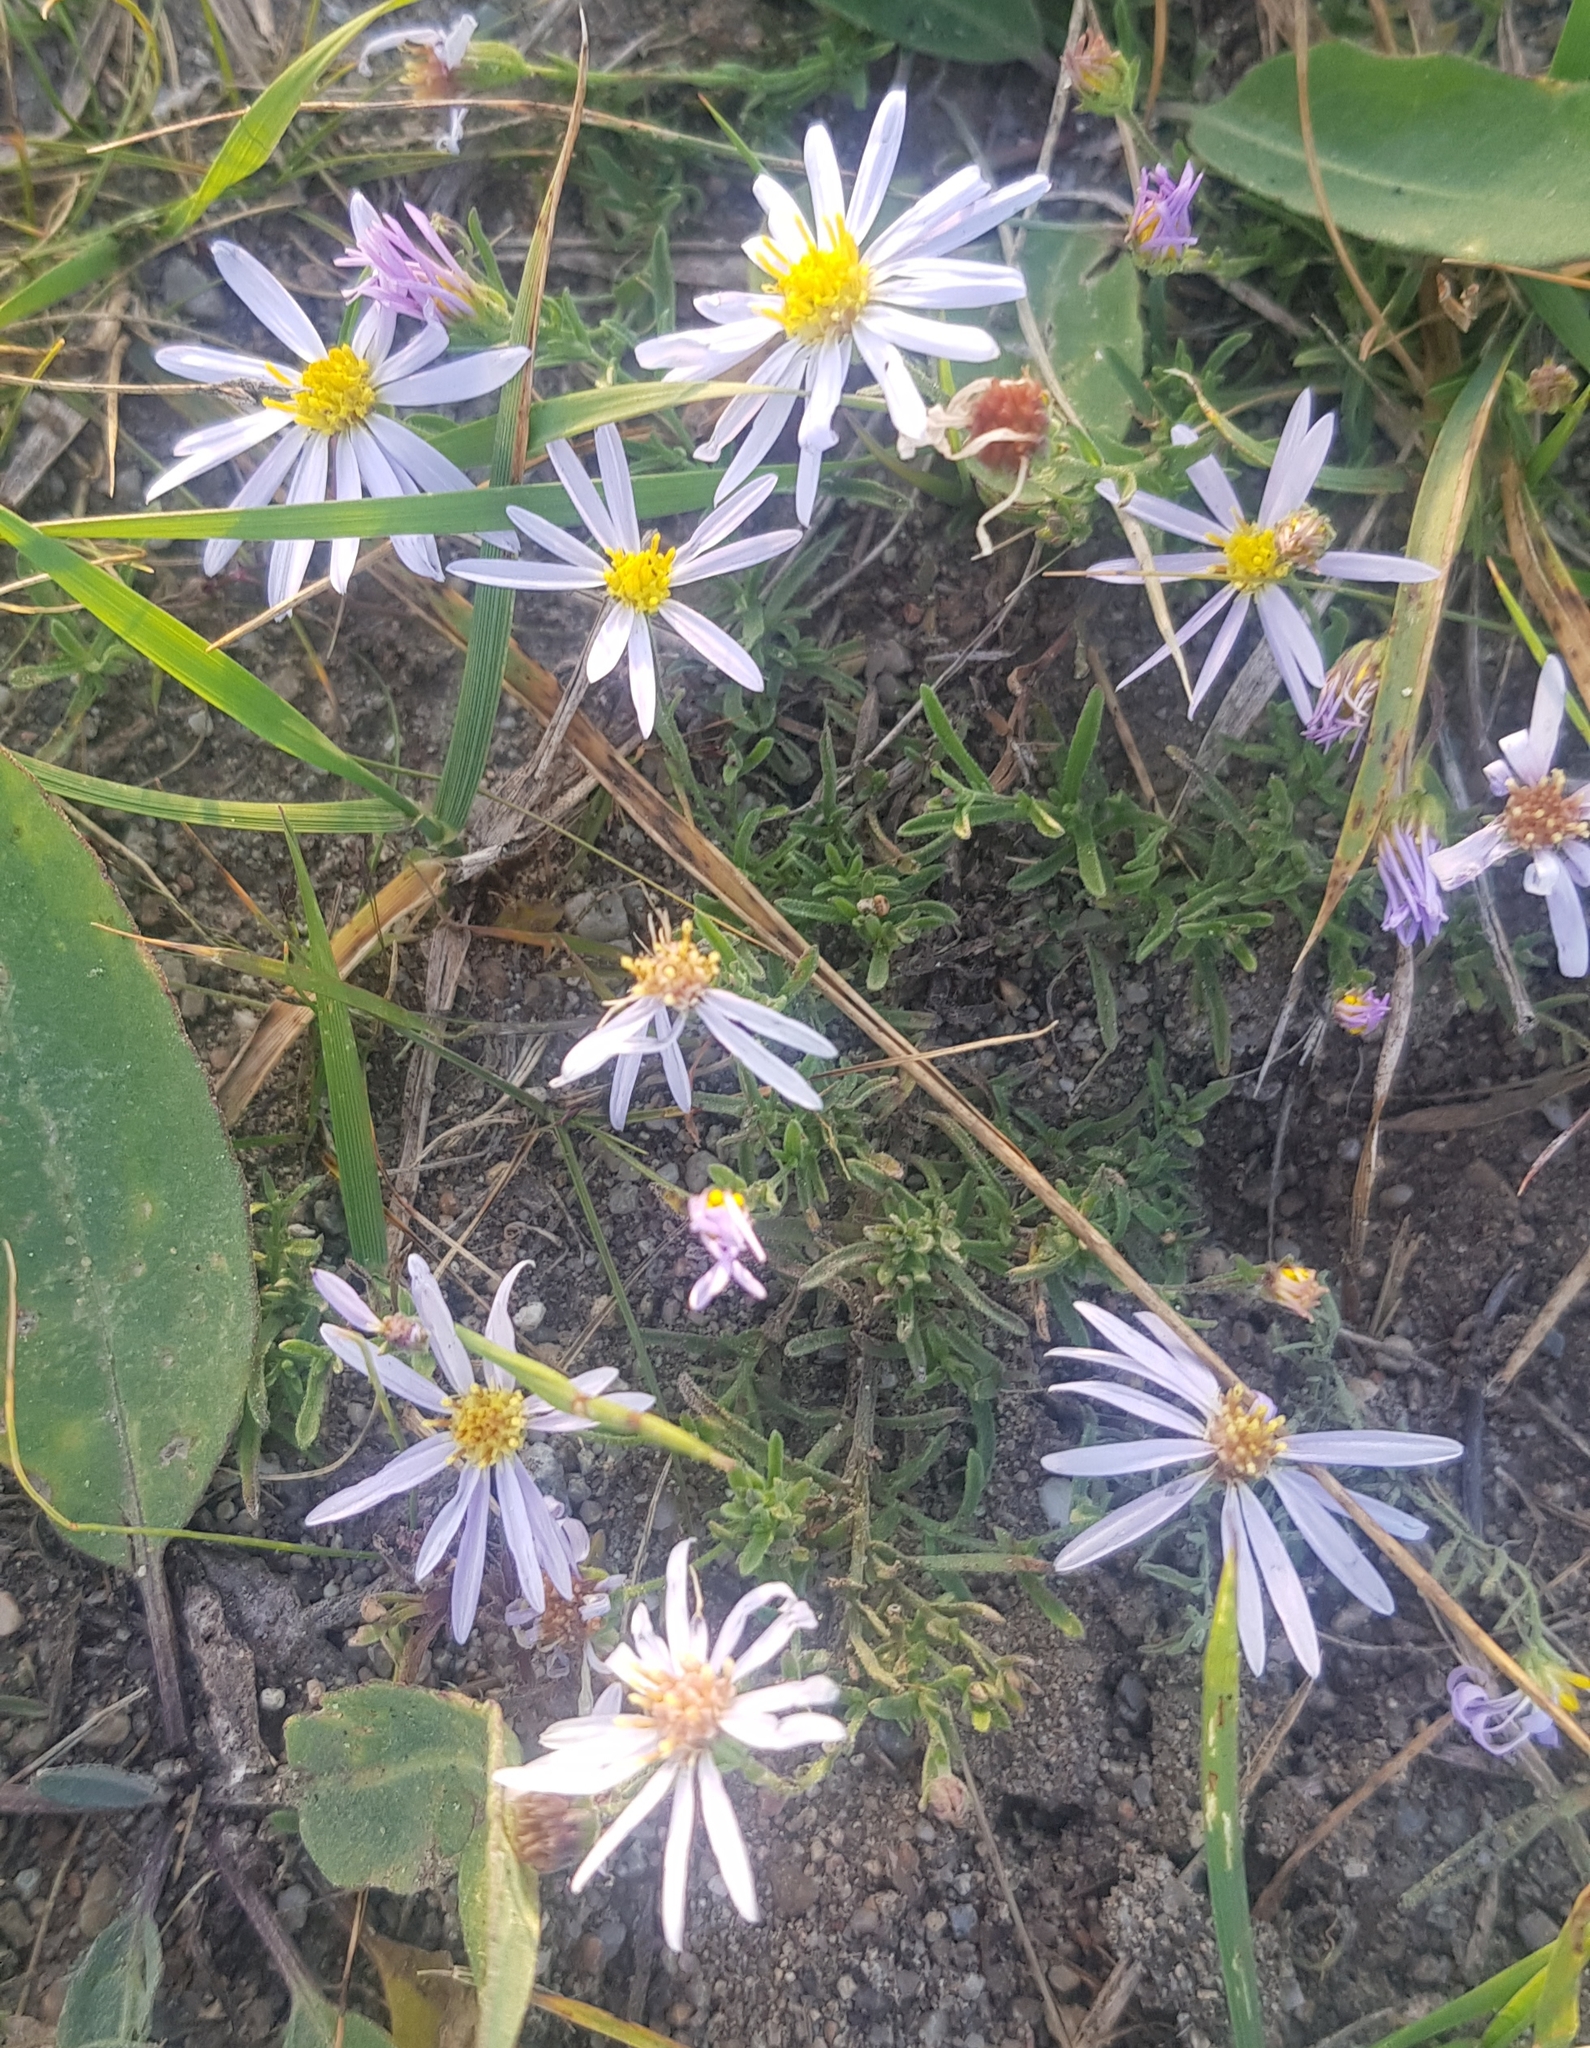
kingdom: Plantae
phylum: Tracheophyta
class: Magnoliopsida
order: Asterales
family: Asteraceae
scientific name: Asteraceae
